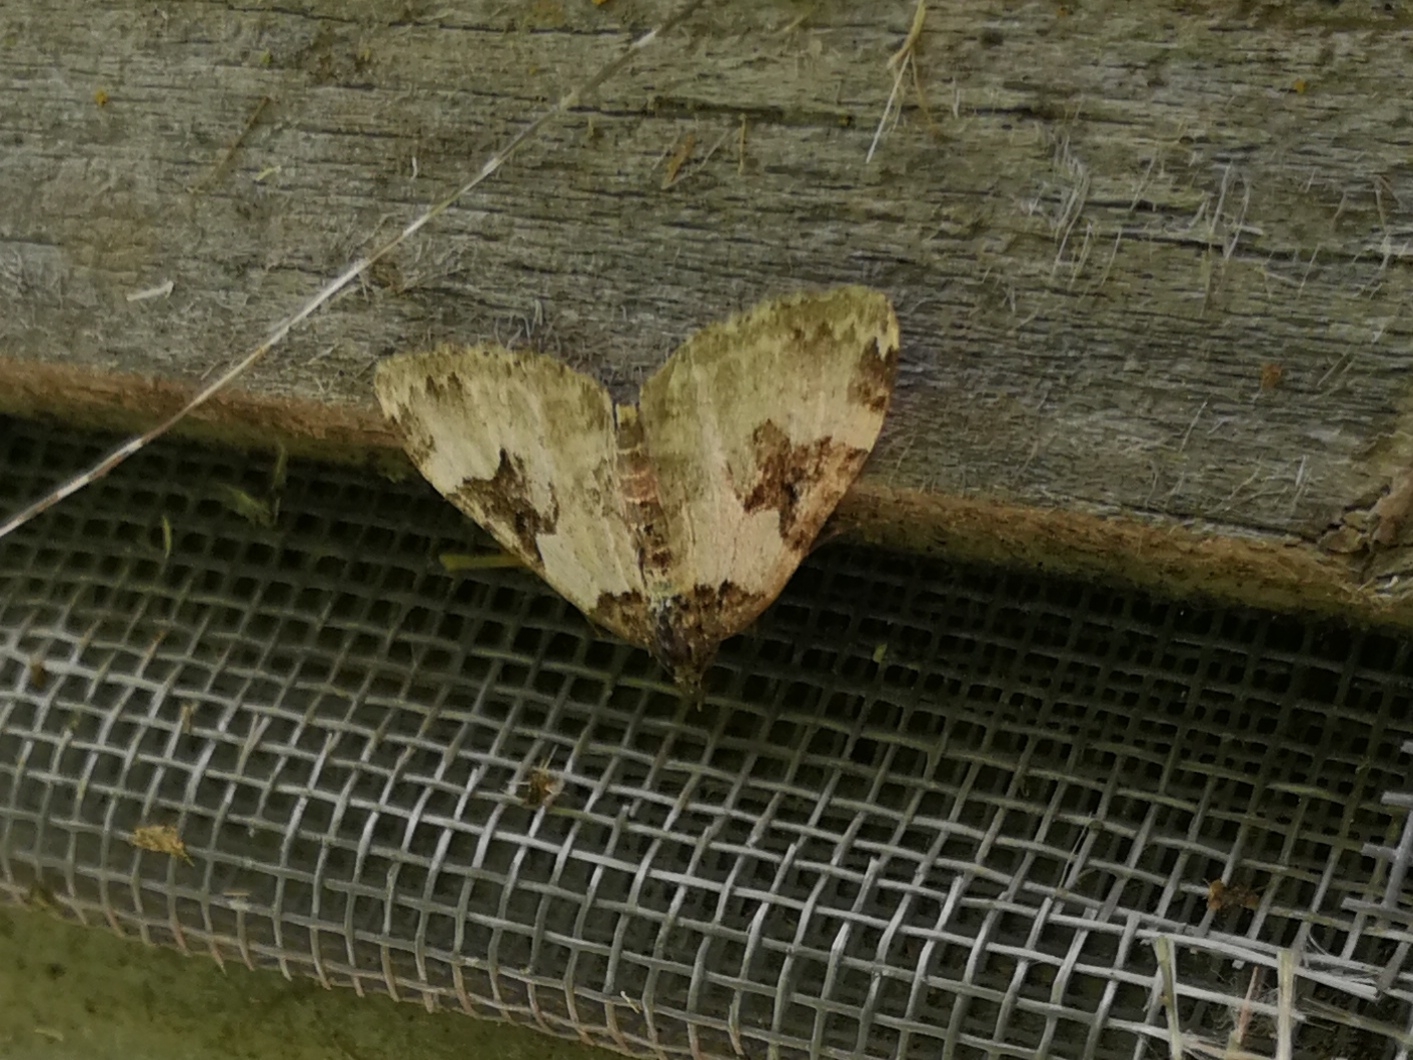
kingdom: Animalia
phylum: Arthropoda
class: Insecta
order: Lepidoptera
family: Geometridae
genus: Xanthorhoe
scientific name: Xanthorhoe fluctuata
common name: Garden carpet
